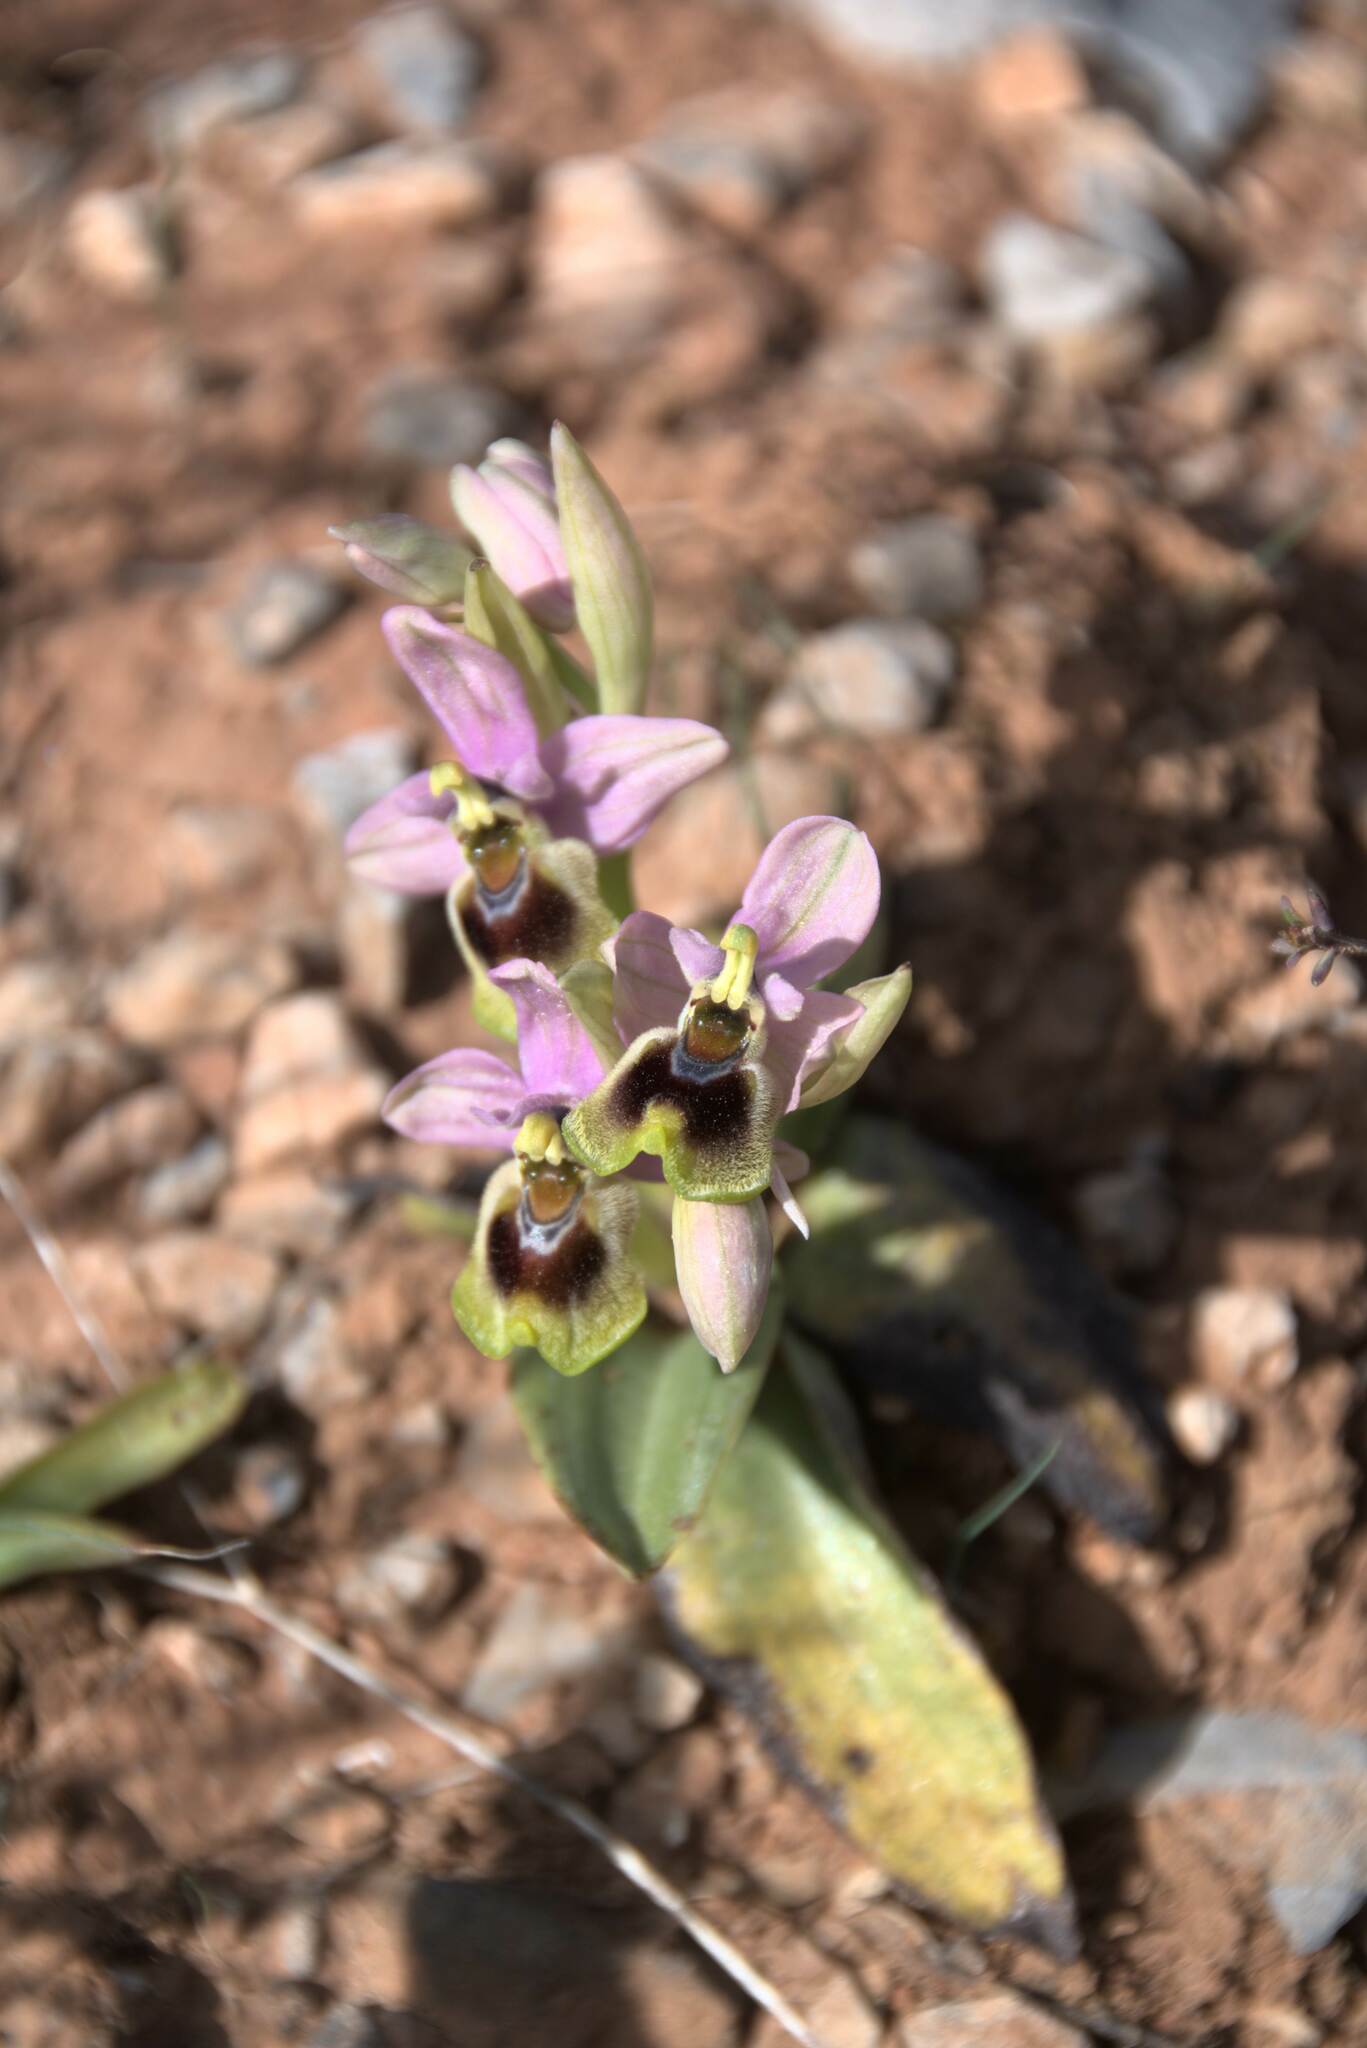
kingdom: Plantae
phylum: Tracheophyta
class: Liliopsida
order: Asparagales
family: Orchidaceae
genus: Ophrys
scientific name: Ophrys tenthredinifera
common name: Sawfly orchid
